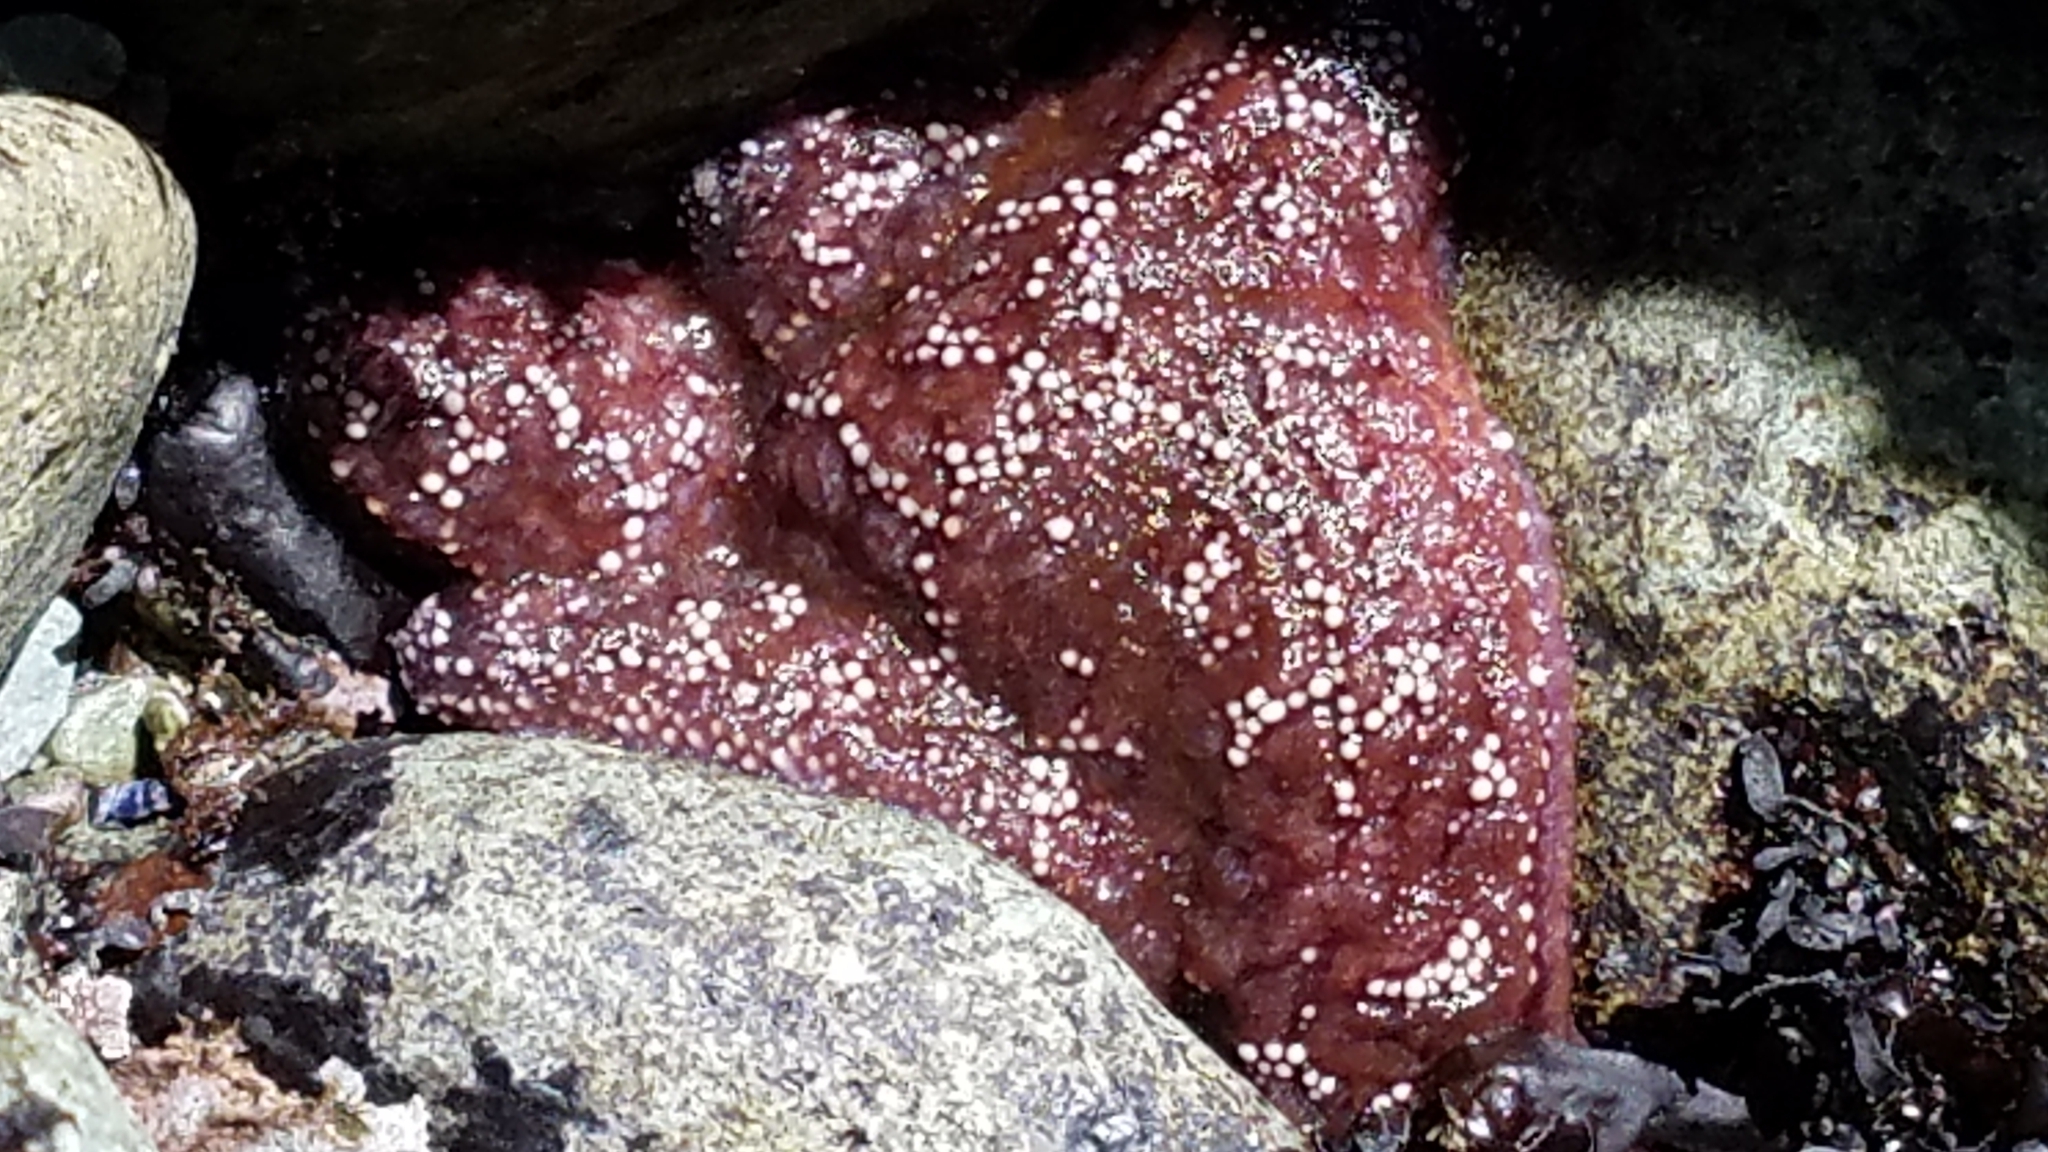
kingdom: Animalia
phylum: Echinodermata
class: Asteroidea
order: Forcipulatida
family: Asteriidae
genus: Pisaster
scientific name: Pisaster ochraceus
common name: Ochre stars
